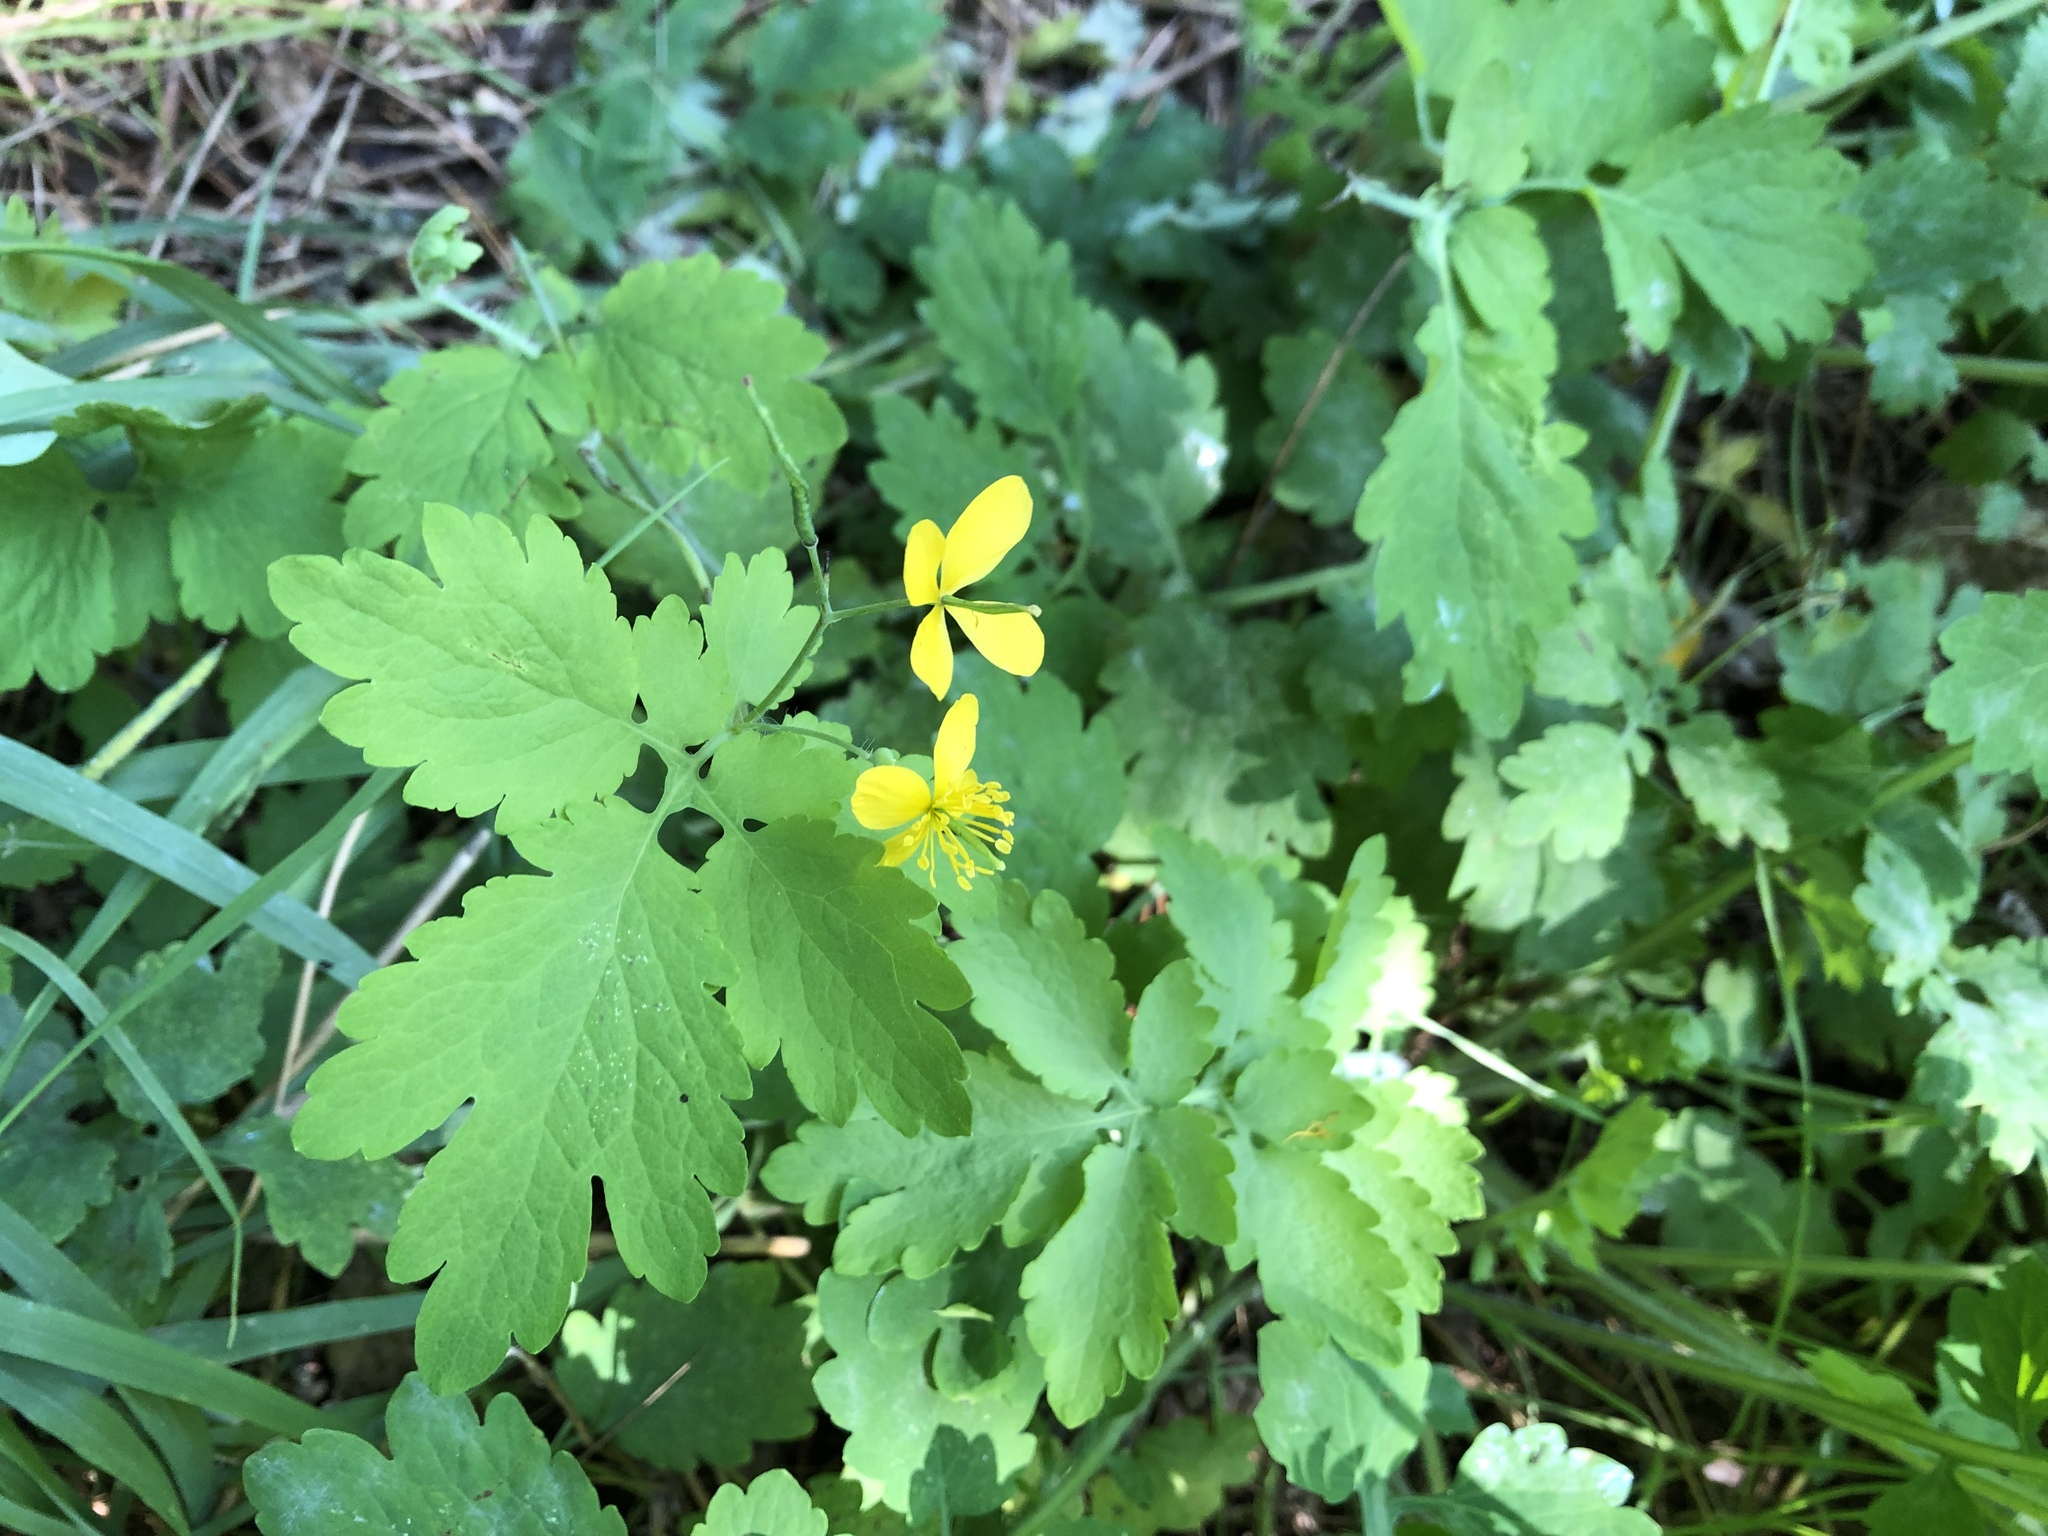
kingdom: Plantae
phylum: Tracheophyta
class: Magnoliopsida
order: Ranunculales
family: Papaveraceae
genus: Chelidonium
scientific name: Chelidonium majus
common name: Greater celandine
